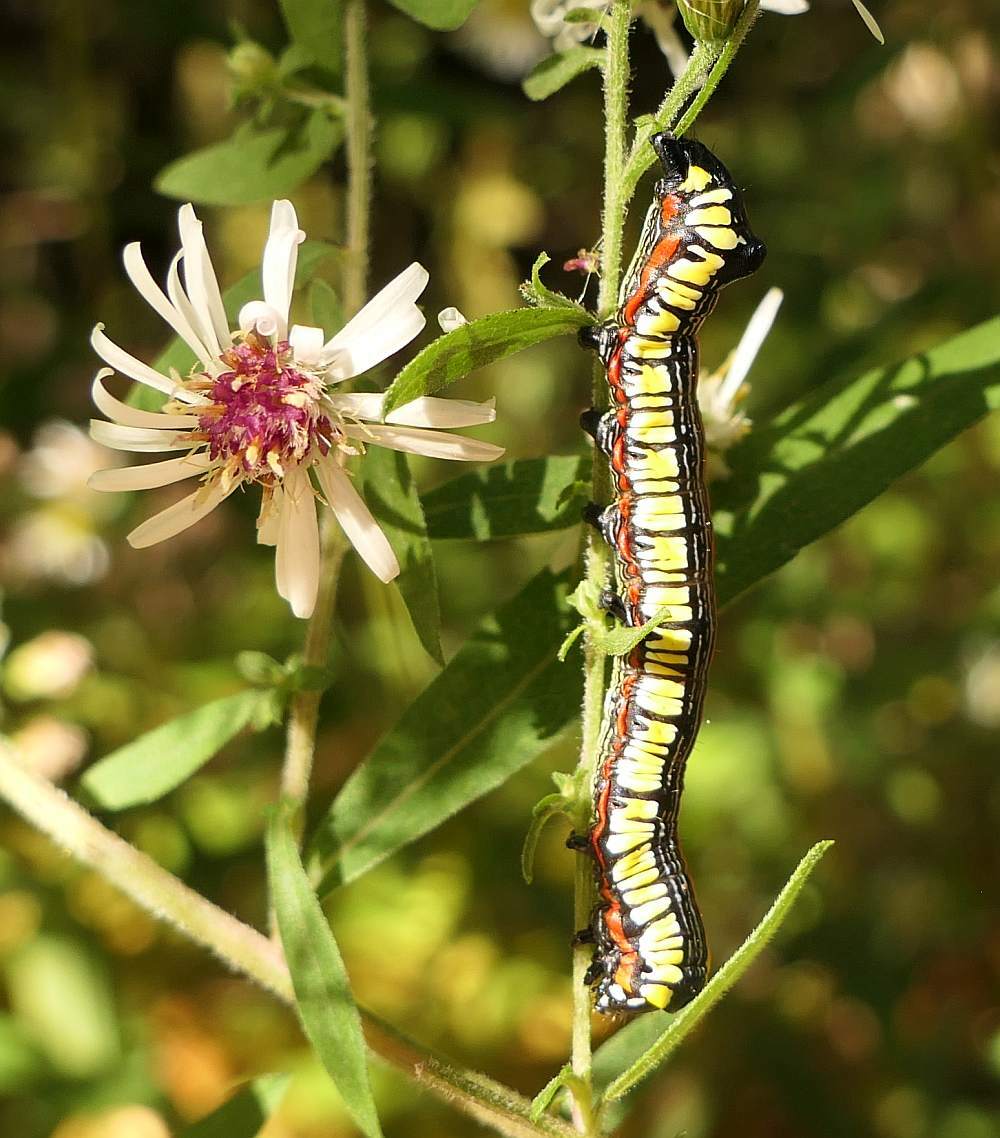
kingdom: Animalia
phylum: Arthropoda
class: Insecta
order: Lepidoptera
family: Noctuidae
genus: Cucullia
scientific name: Cucullia convexipennis
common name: Brown-hooded owlet
